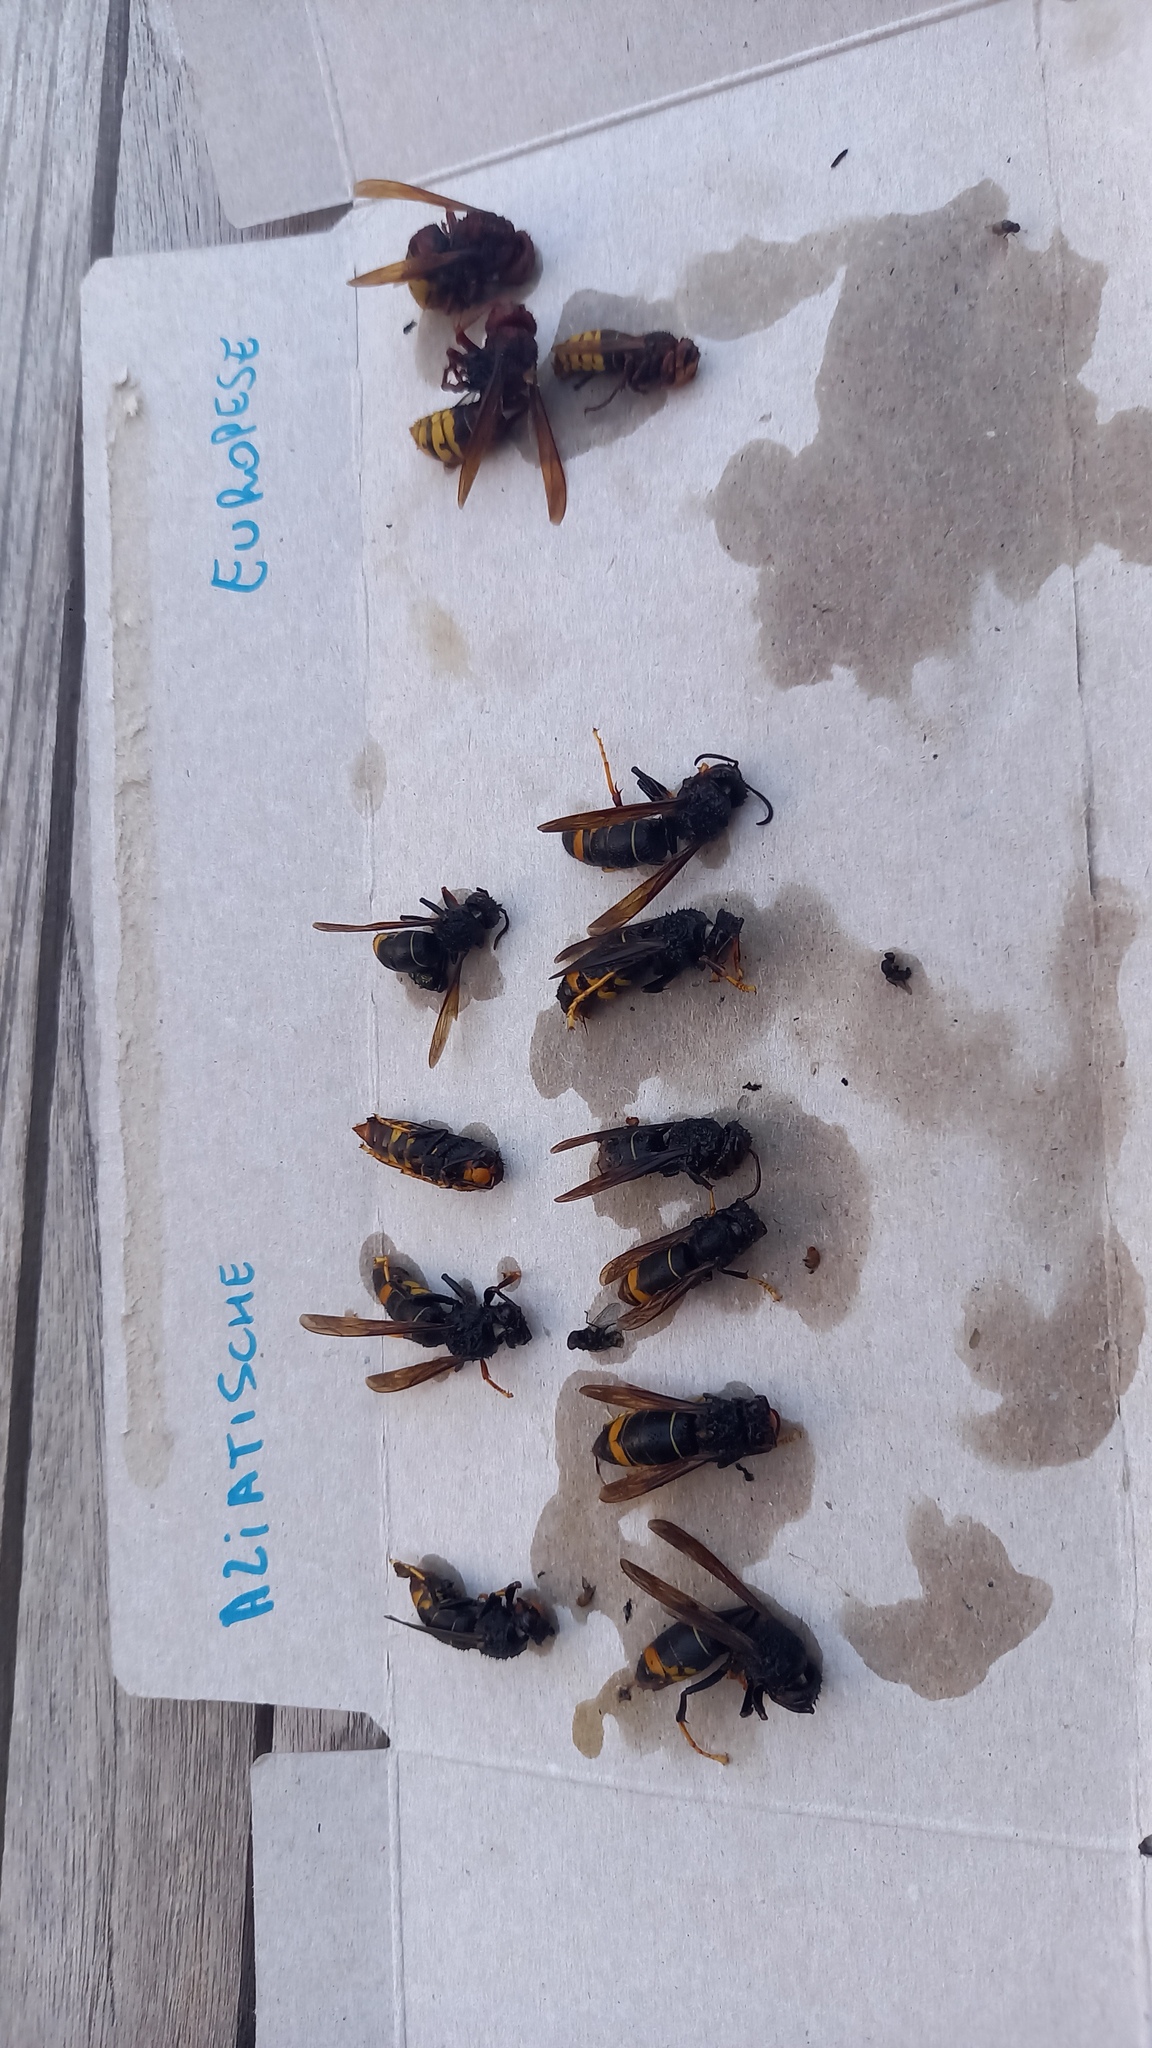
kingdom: Animalia
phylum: Arthropoda
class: Insecta
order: Hymenoptera
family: Vespidae
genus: Vespa
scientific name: Vespa velutina
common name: Asian hornet
